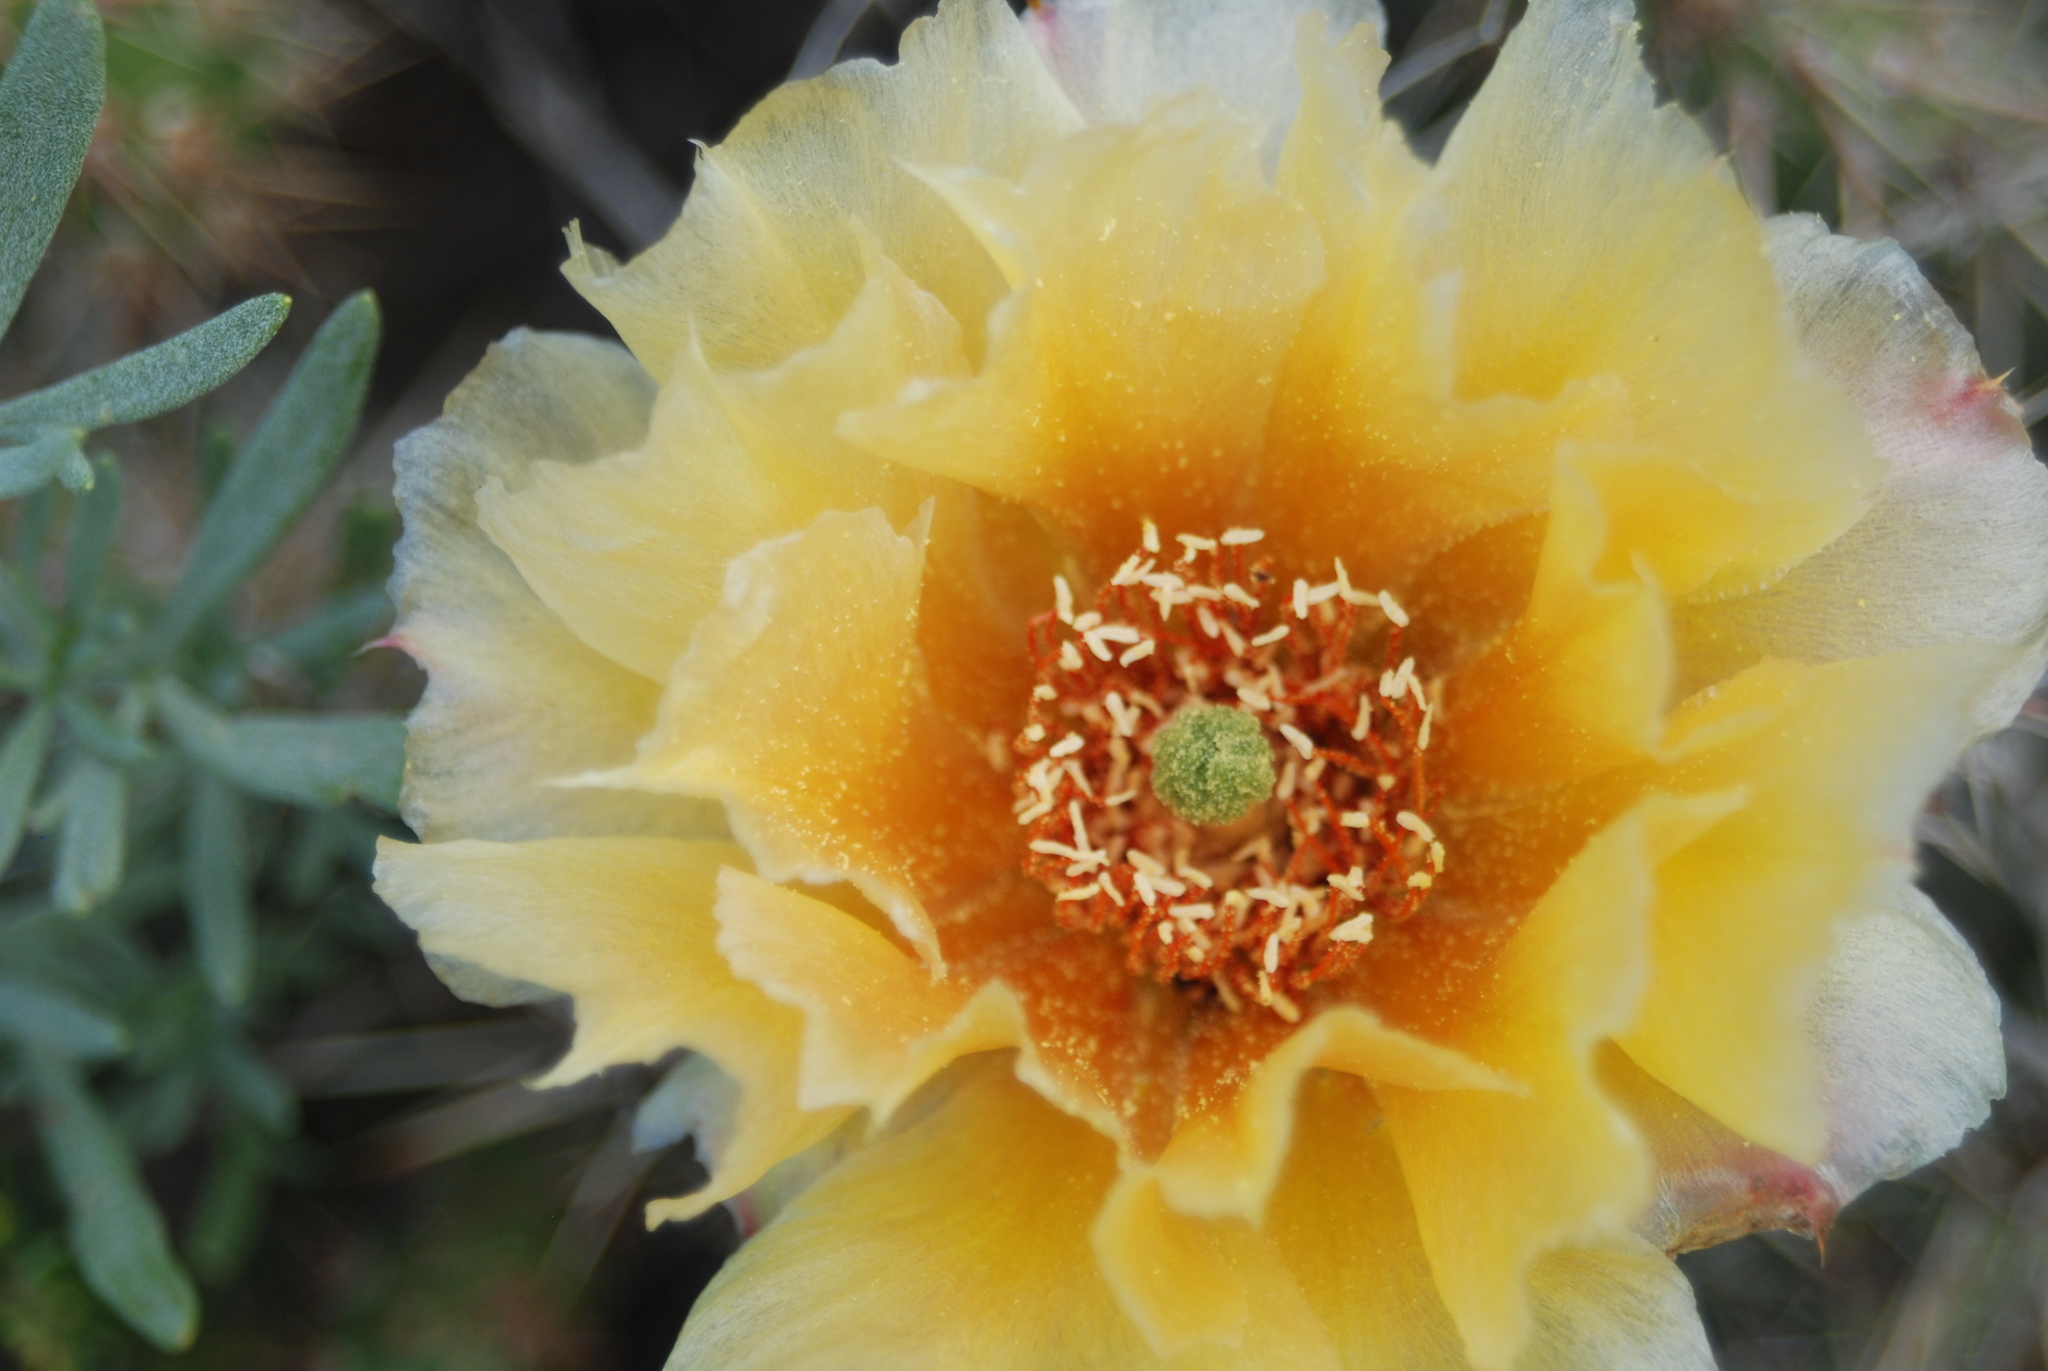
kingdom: Plantae
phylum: Tracheophyta
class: Magnoliopsida
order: Caryophyllales
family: Cactaceae
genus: Opuntia
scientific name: Opuntia
